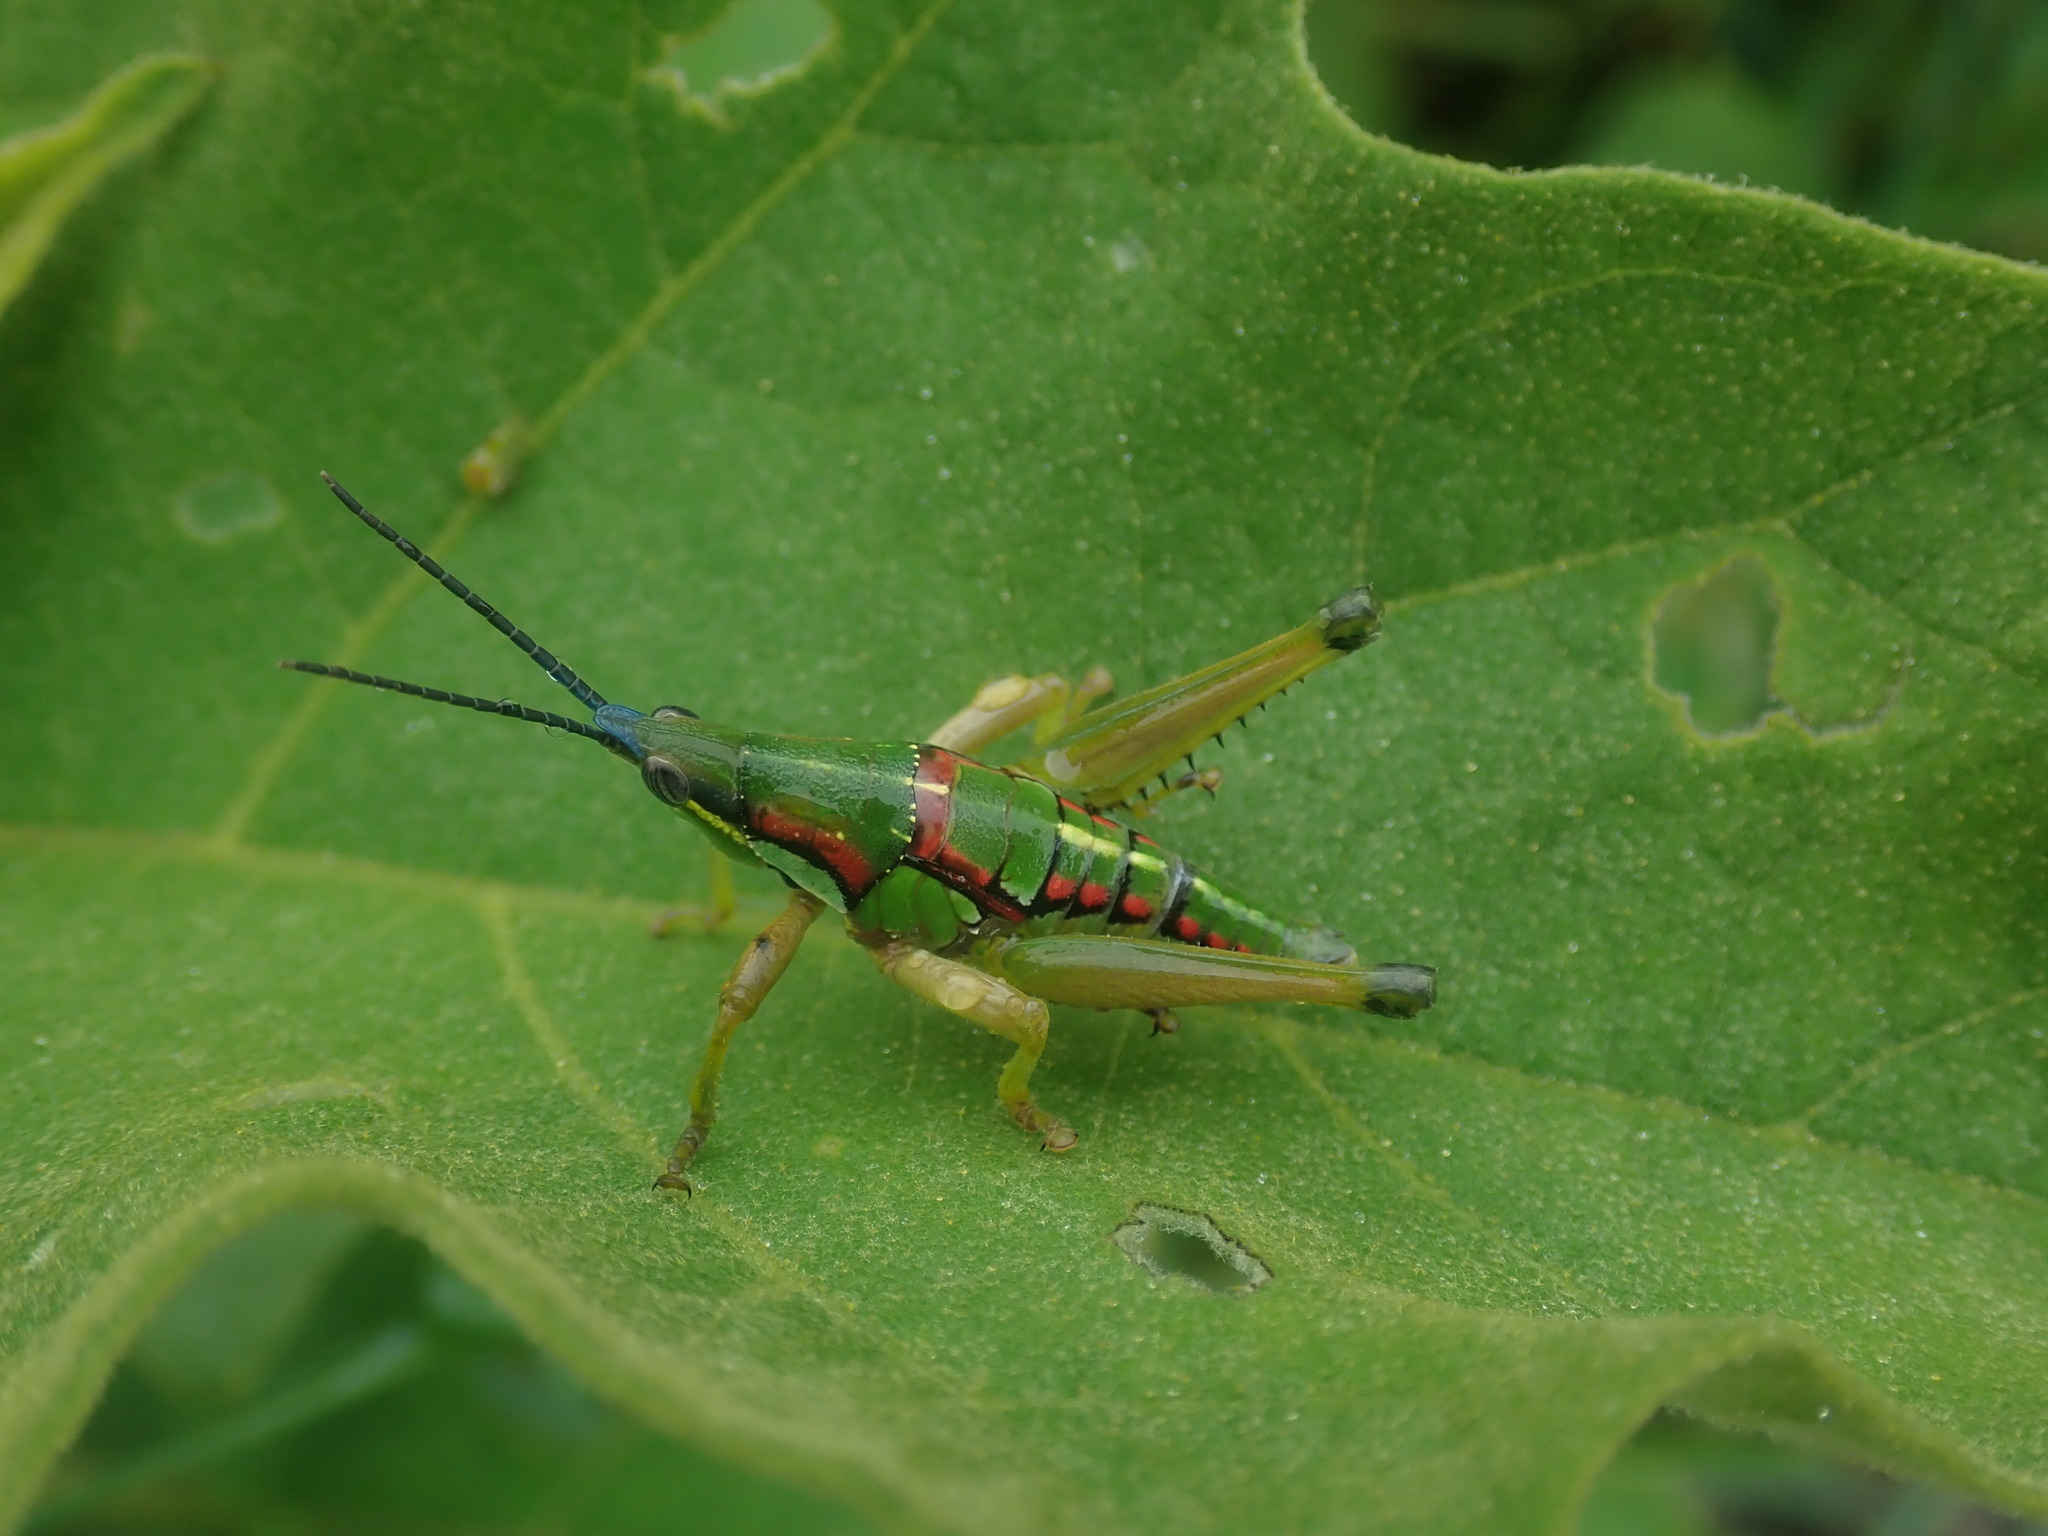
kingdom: Animalia
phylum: Arthropoda
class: Insecta
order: Orthoptera
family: Pyrgomorphidae
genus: Sphenarium
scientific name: Sphenarium mexicanum
